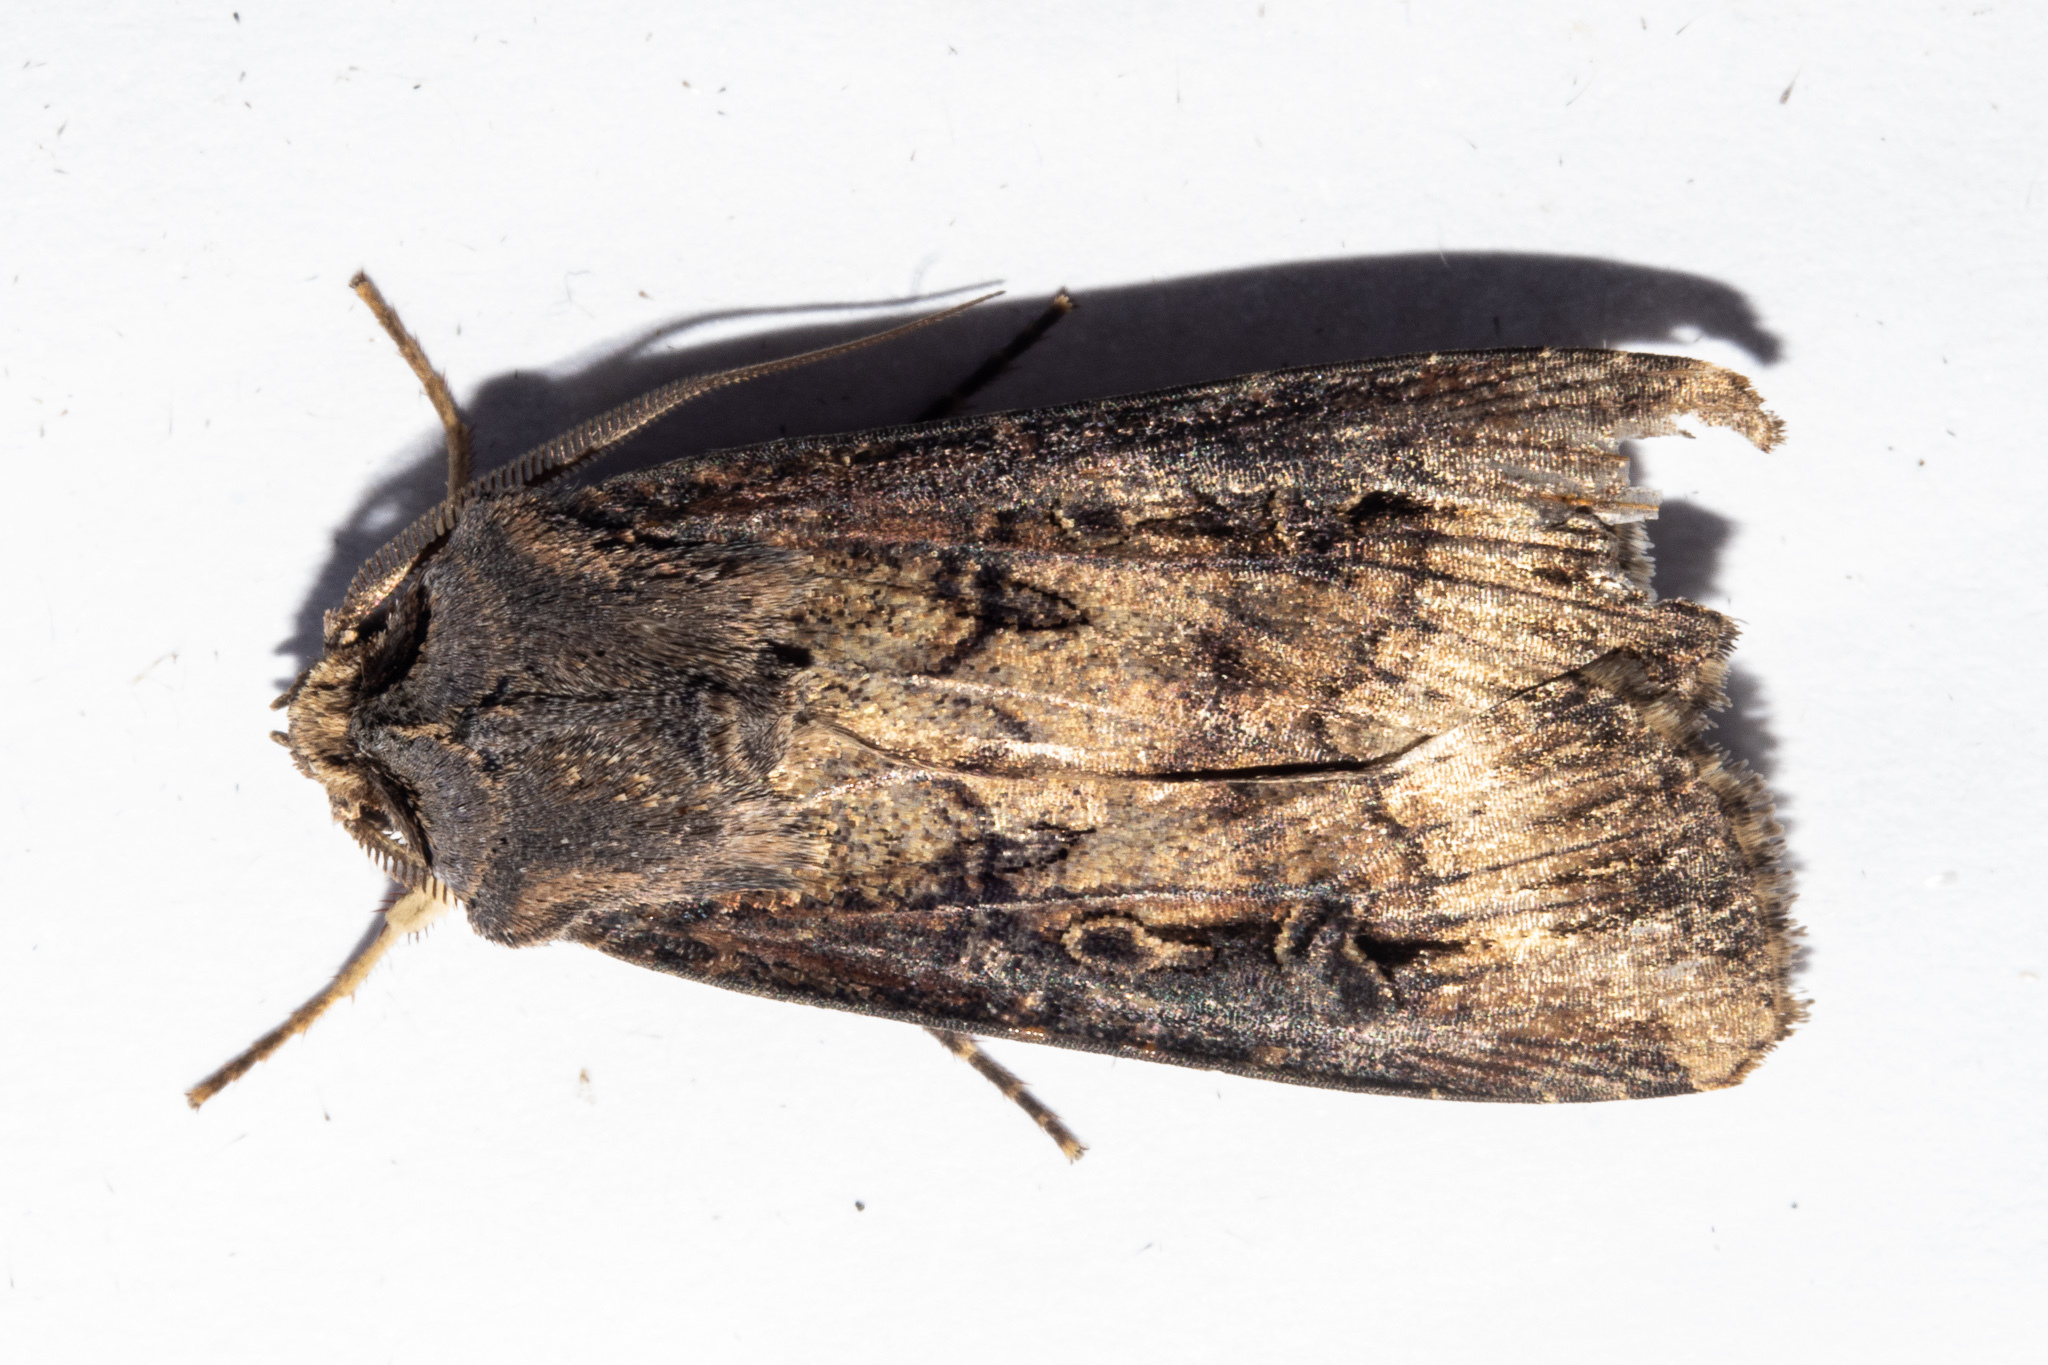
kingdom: Animalia
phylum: Arthropoda
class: Insecta
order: Lepidoptera
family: Noctuidae
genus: Agrotis
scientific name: Agrotis ipsilon
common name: Dark sword-grass
